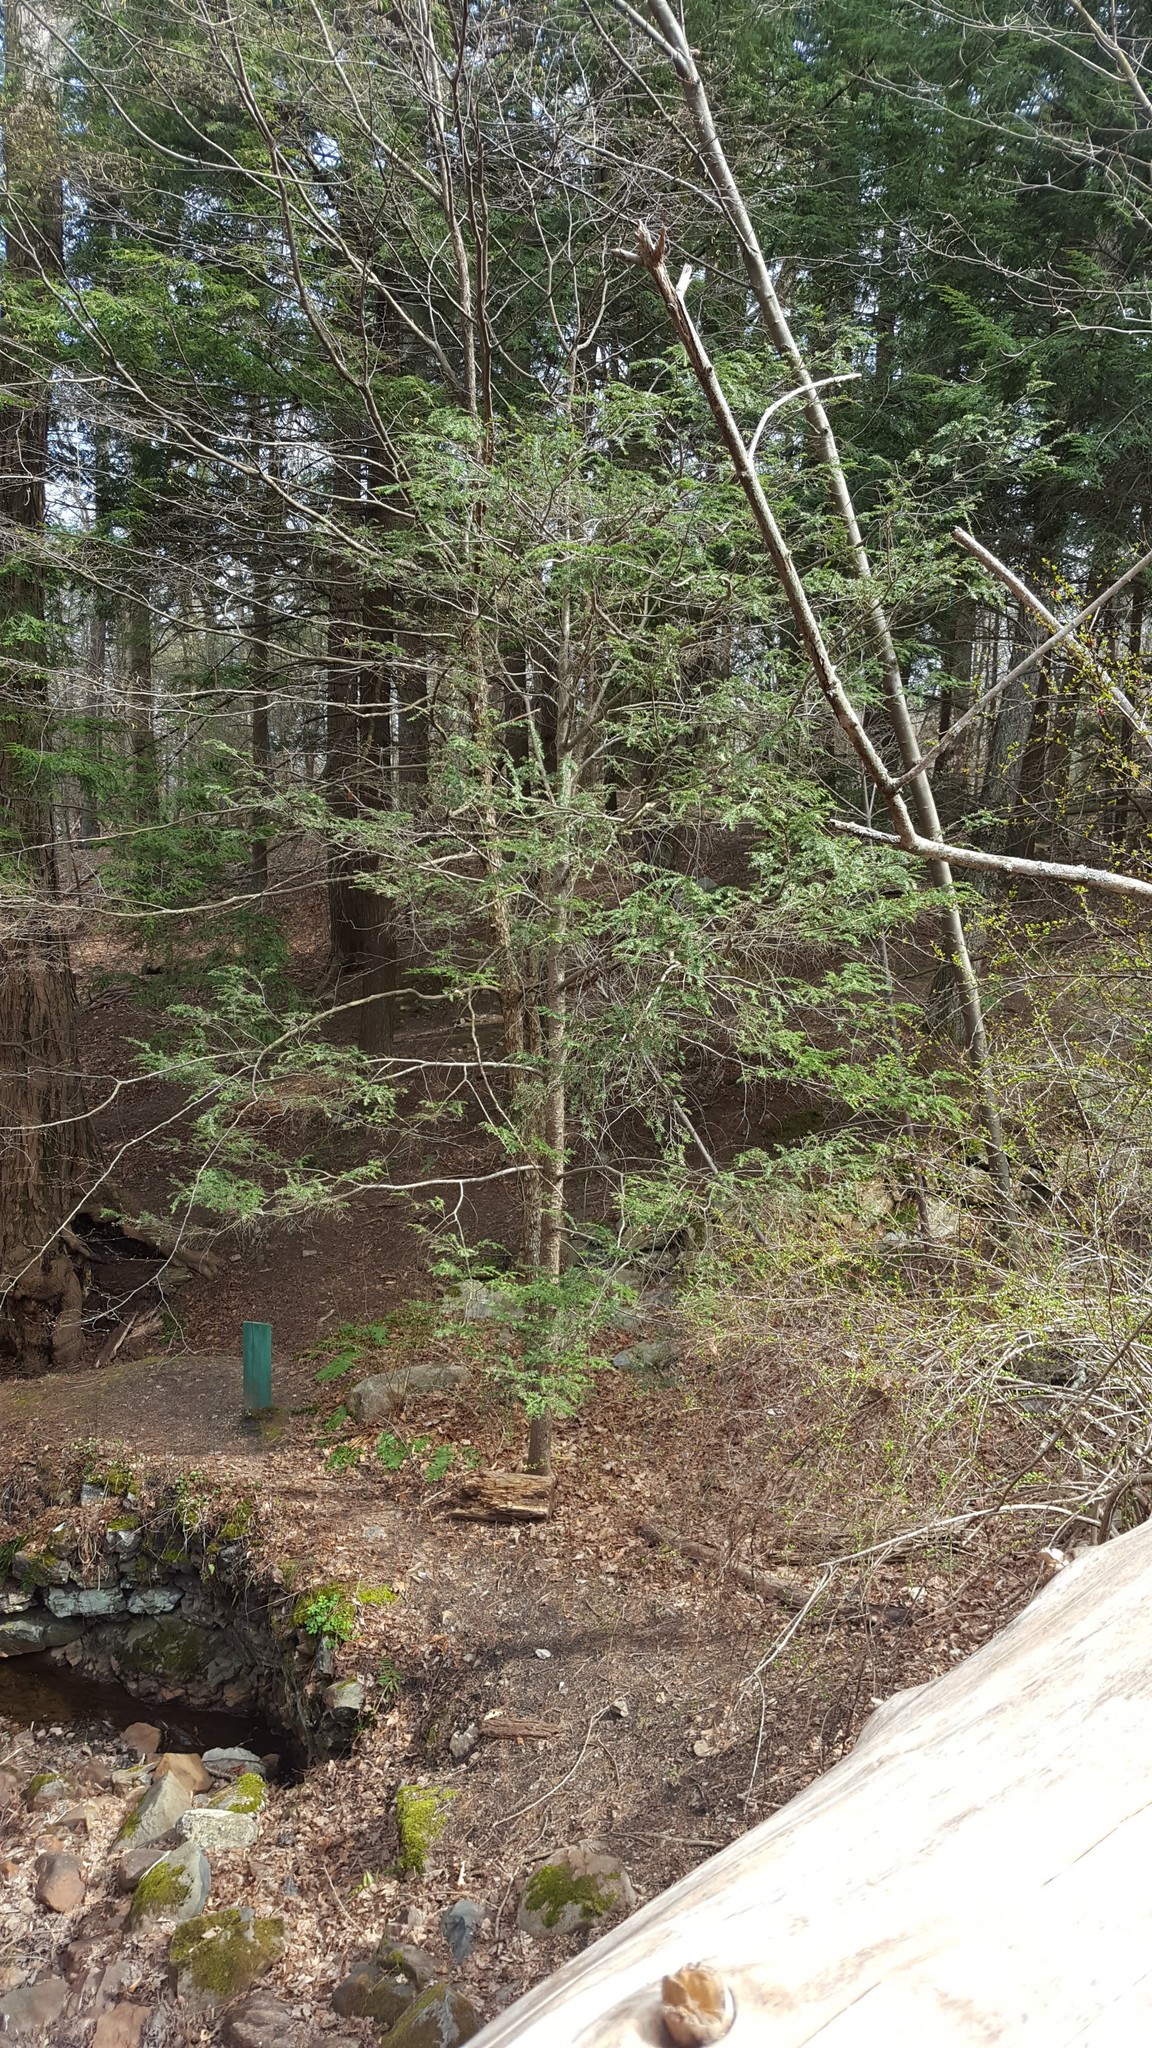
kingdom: Plantae
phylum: Tracheophyta
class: Pinopsida
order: Pinales
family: Pinaceae
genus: Tsuga
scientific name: Tsuga canadensis
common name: Eastern hemlock
